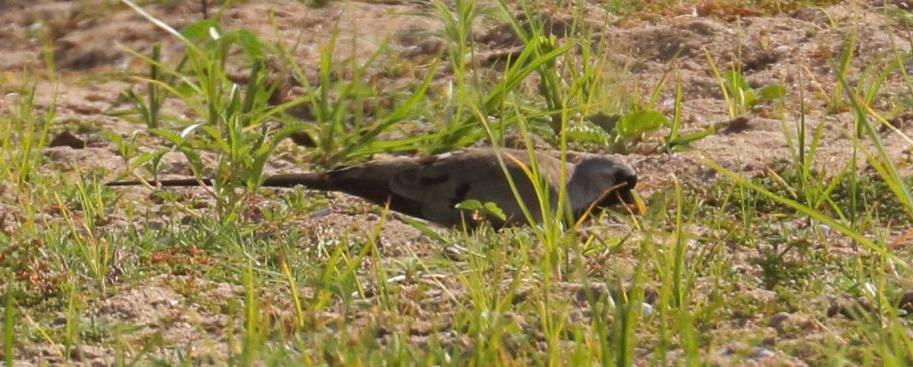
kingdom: Animalia
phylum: Chordata
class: Aves
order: Columbiformes
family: Columbidae
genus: Oena
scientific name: Oena capensis
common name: Namaqua dove
